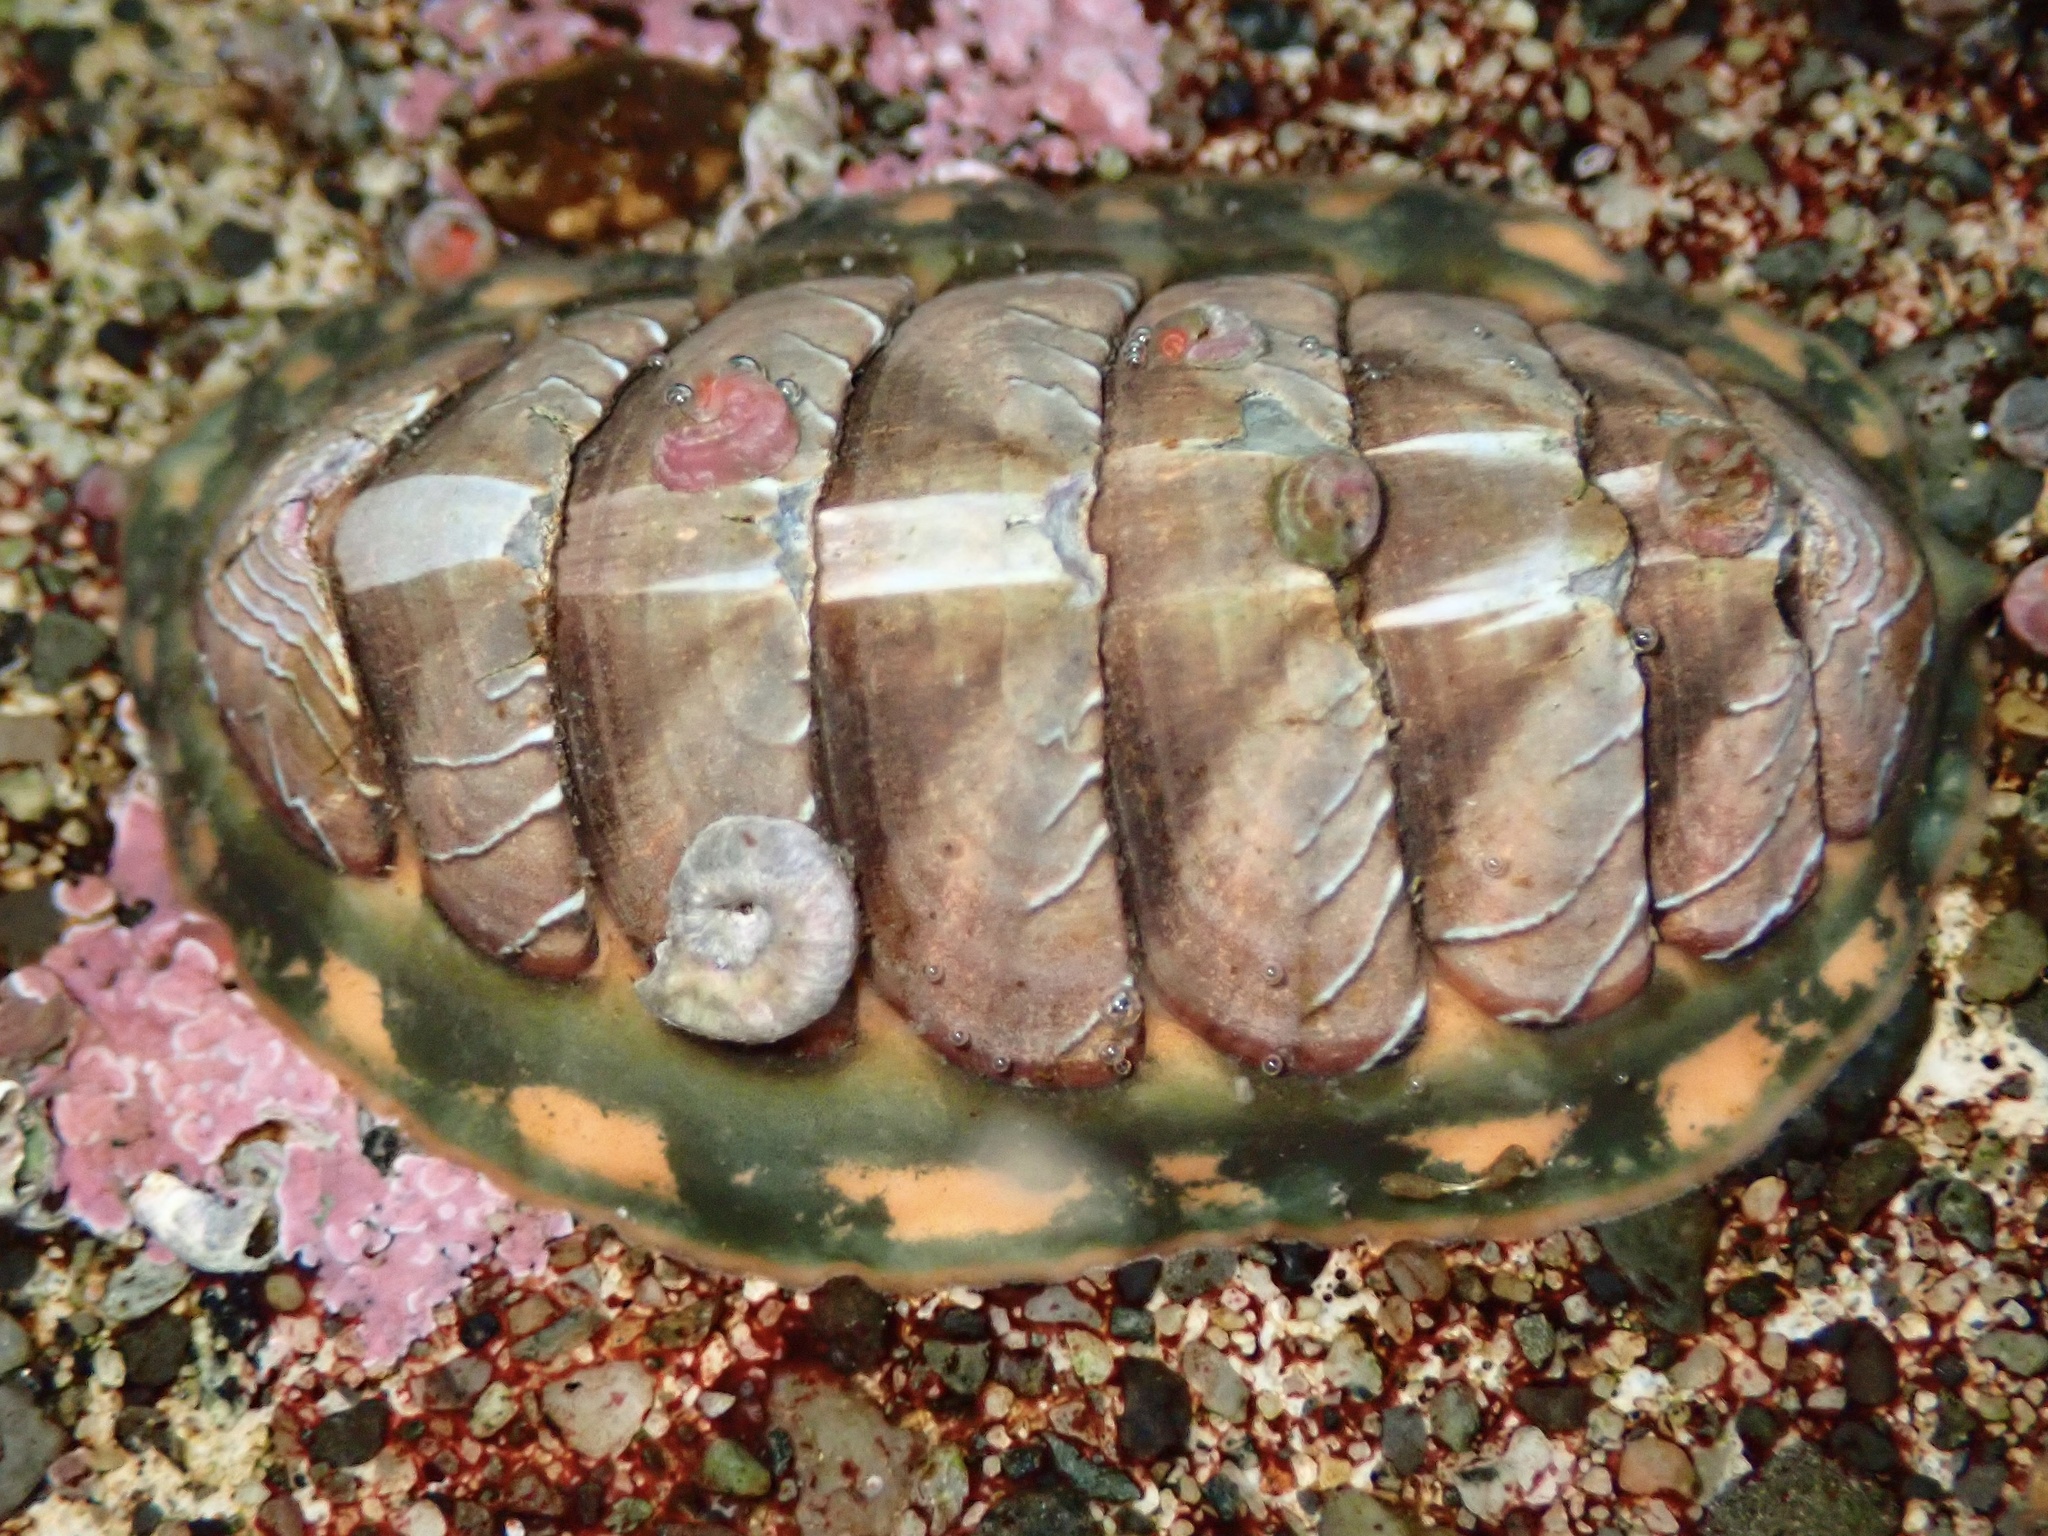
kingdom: Animalia
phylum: Mollusca
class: Polyplacophora
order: Chitonida
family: Tonicellidae
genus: Tonicella
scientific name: Tonicella lineata
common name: Lined chiton
